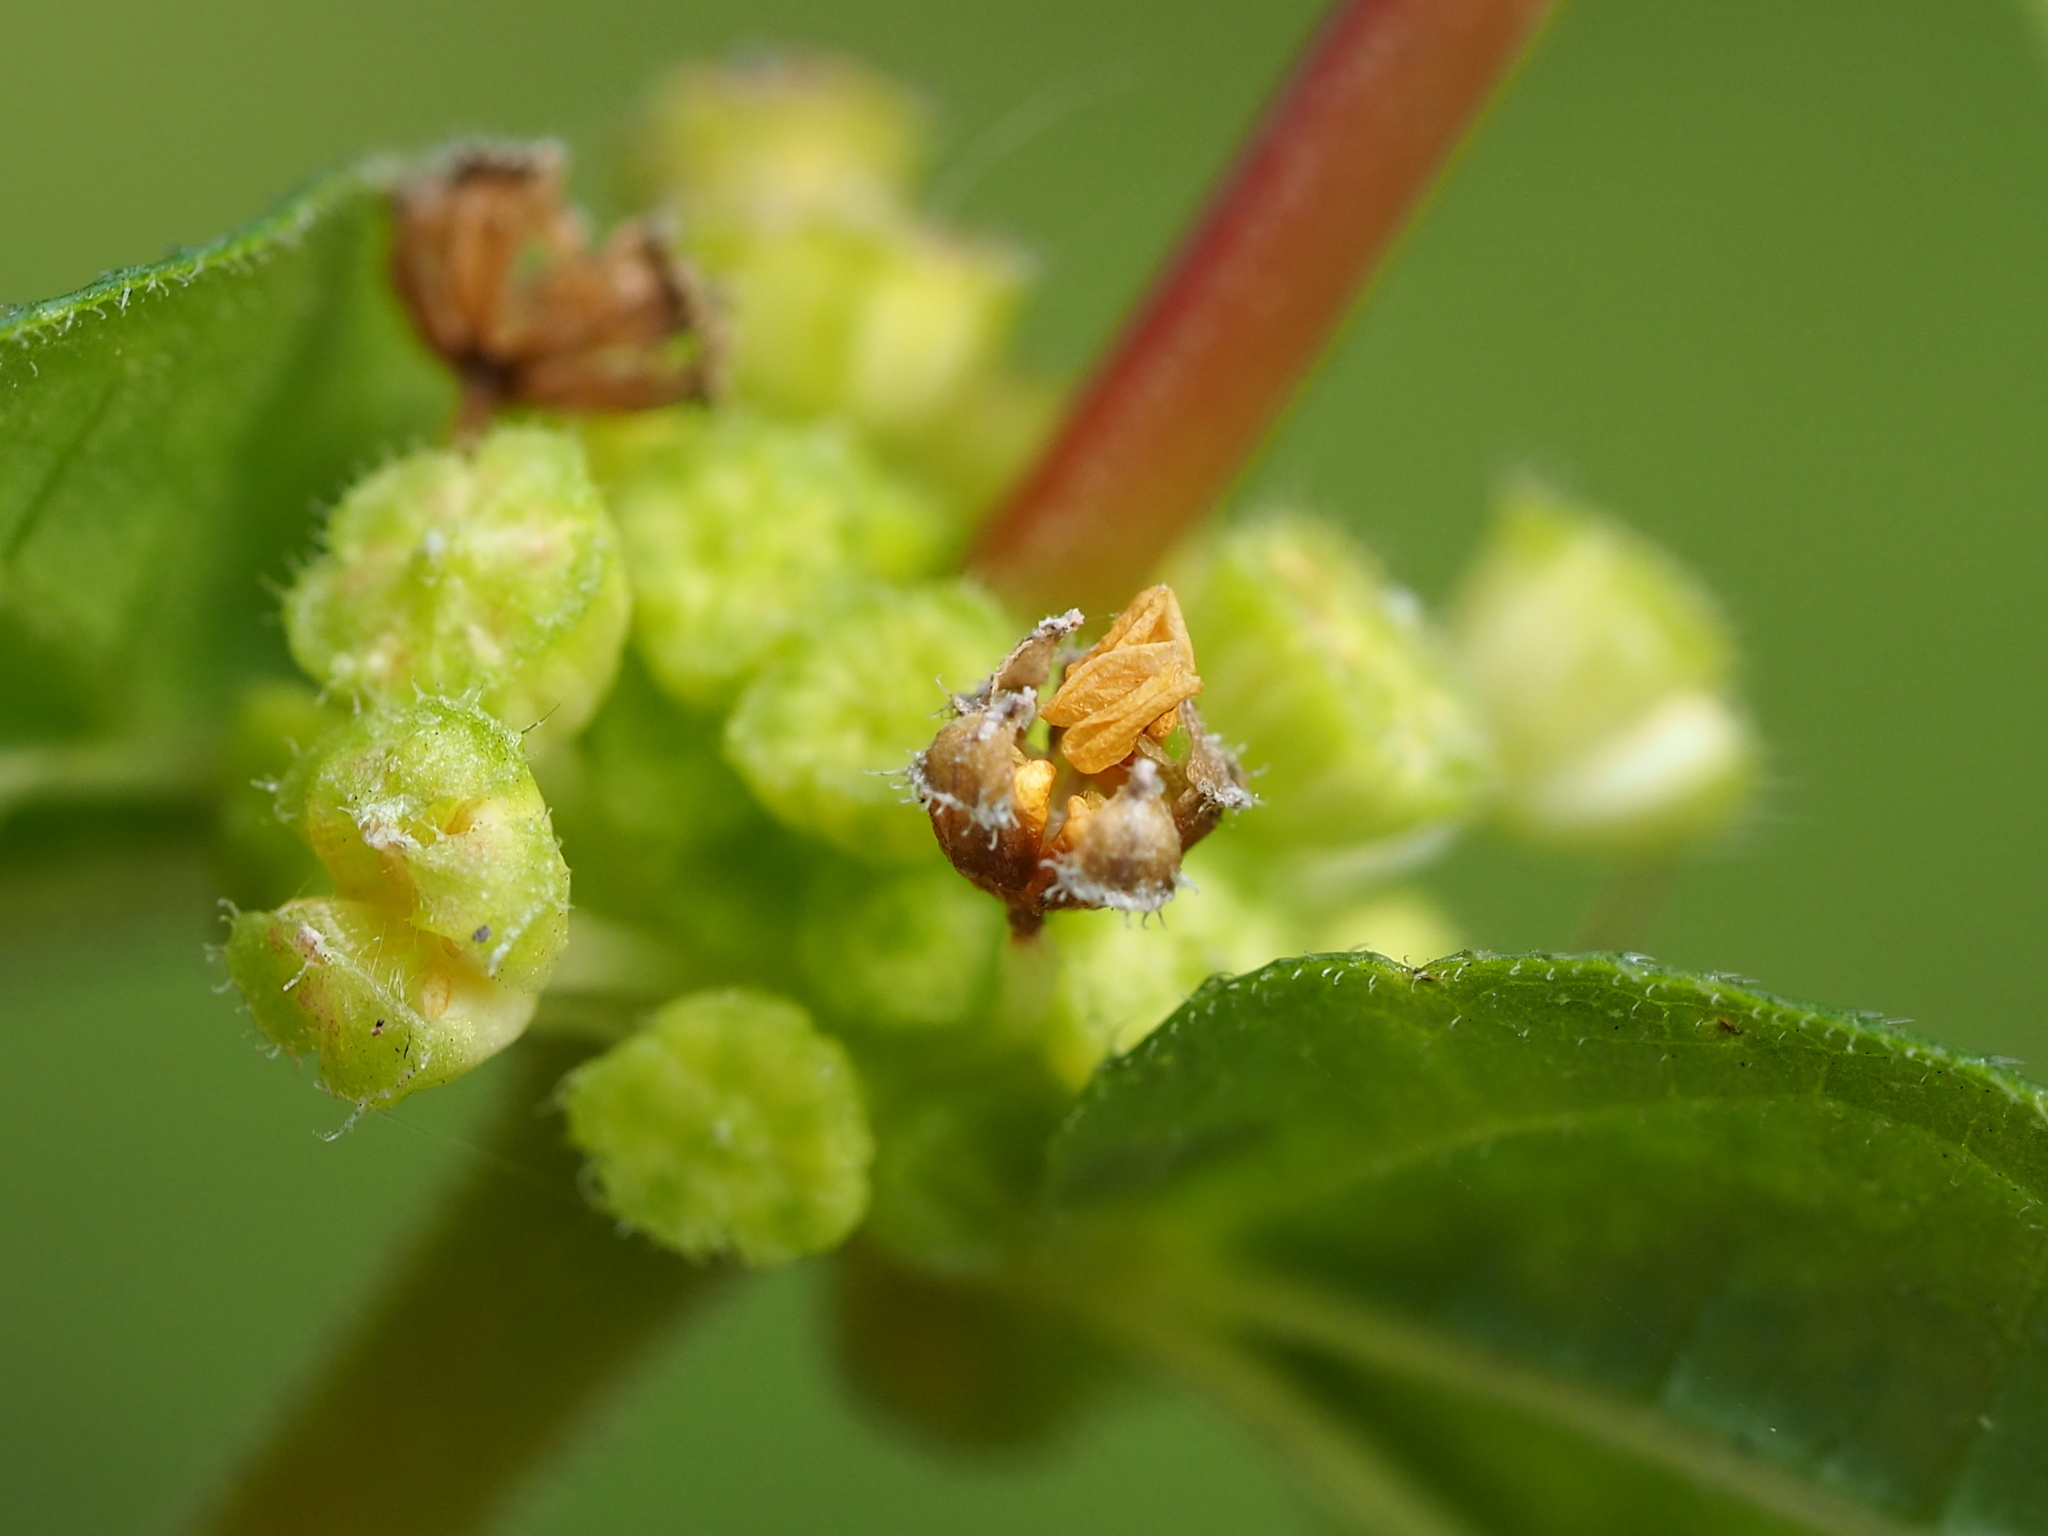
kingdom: Plantae
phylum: Tracheophyta
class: Magnoliopsida
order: Rosales
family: Urticaceae
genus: Gonostegia
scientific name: Gonostegia triandra
